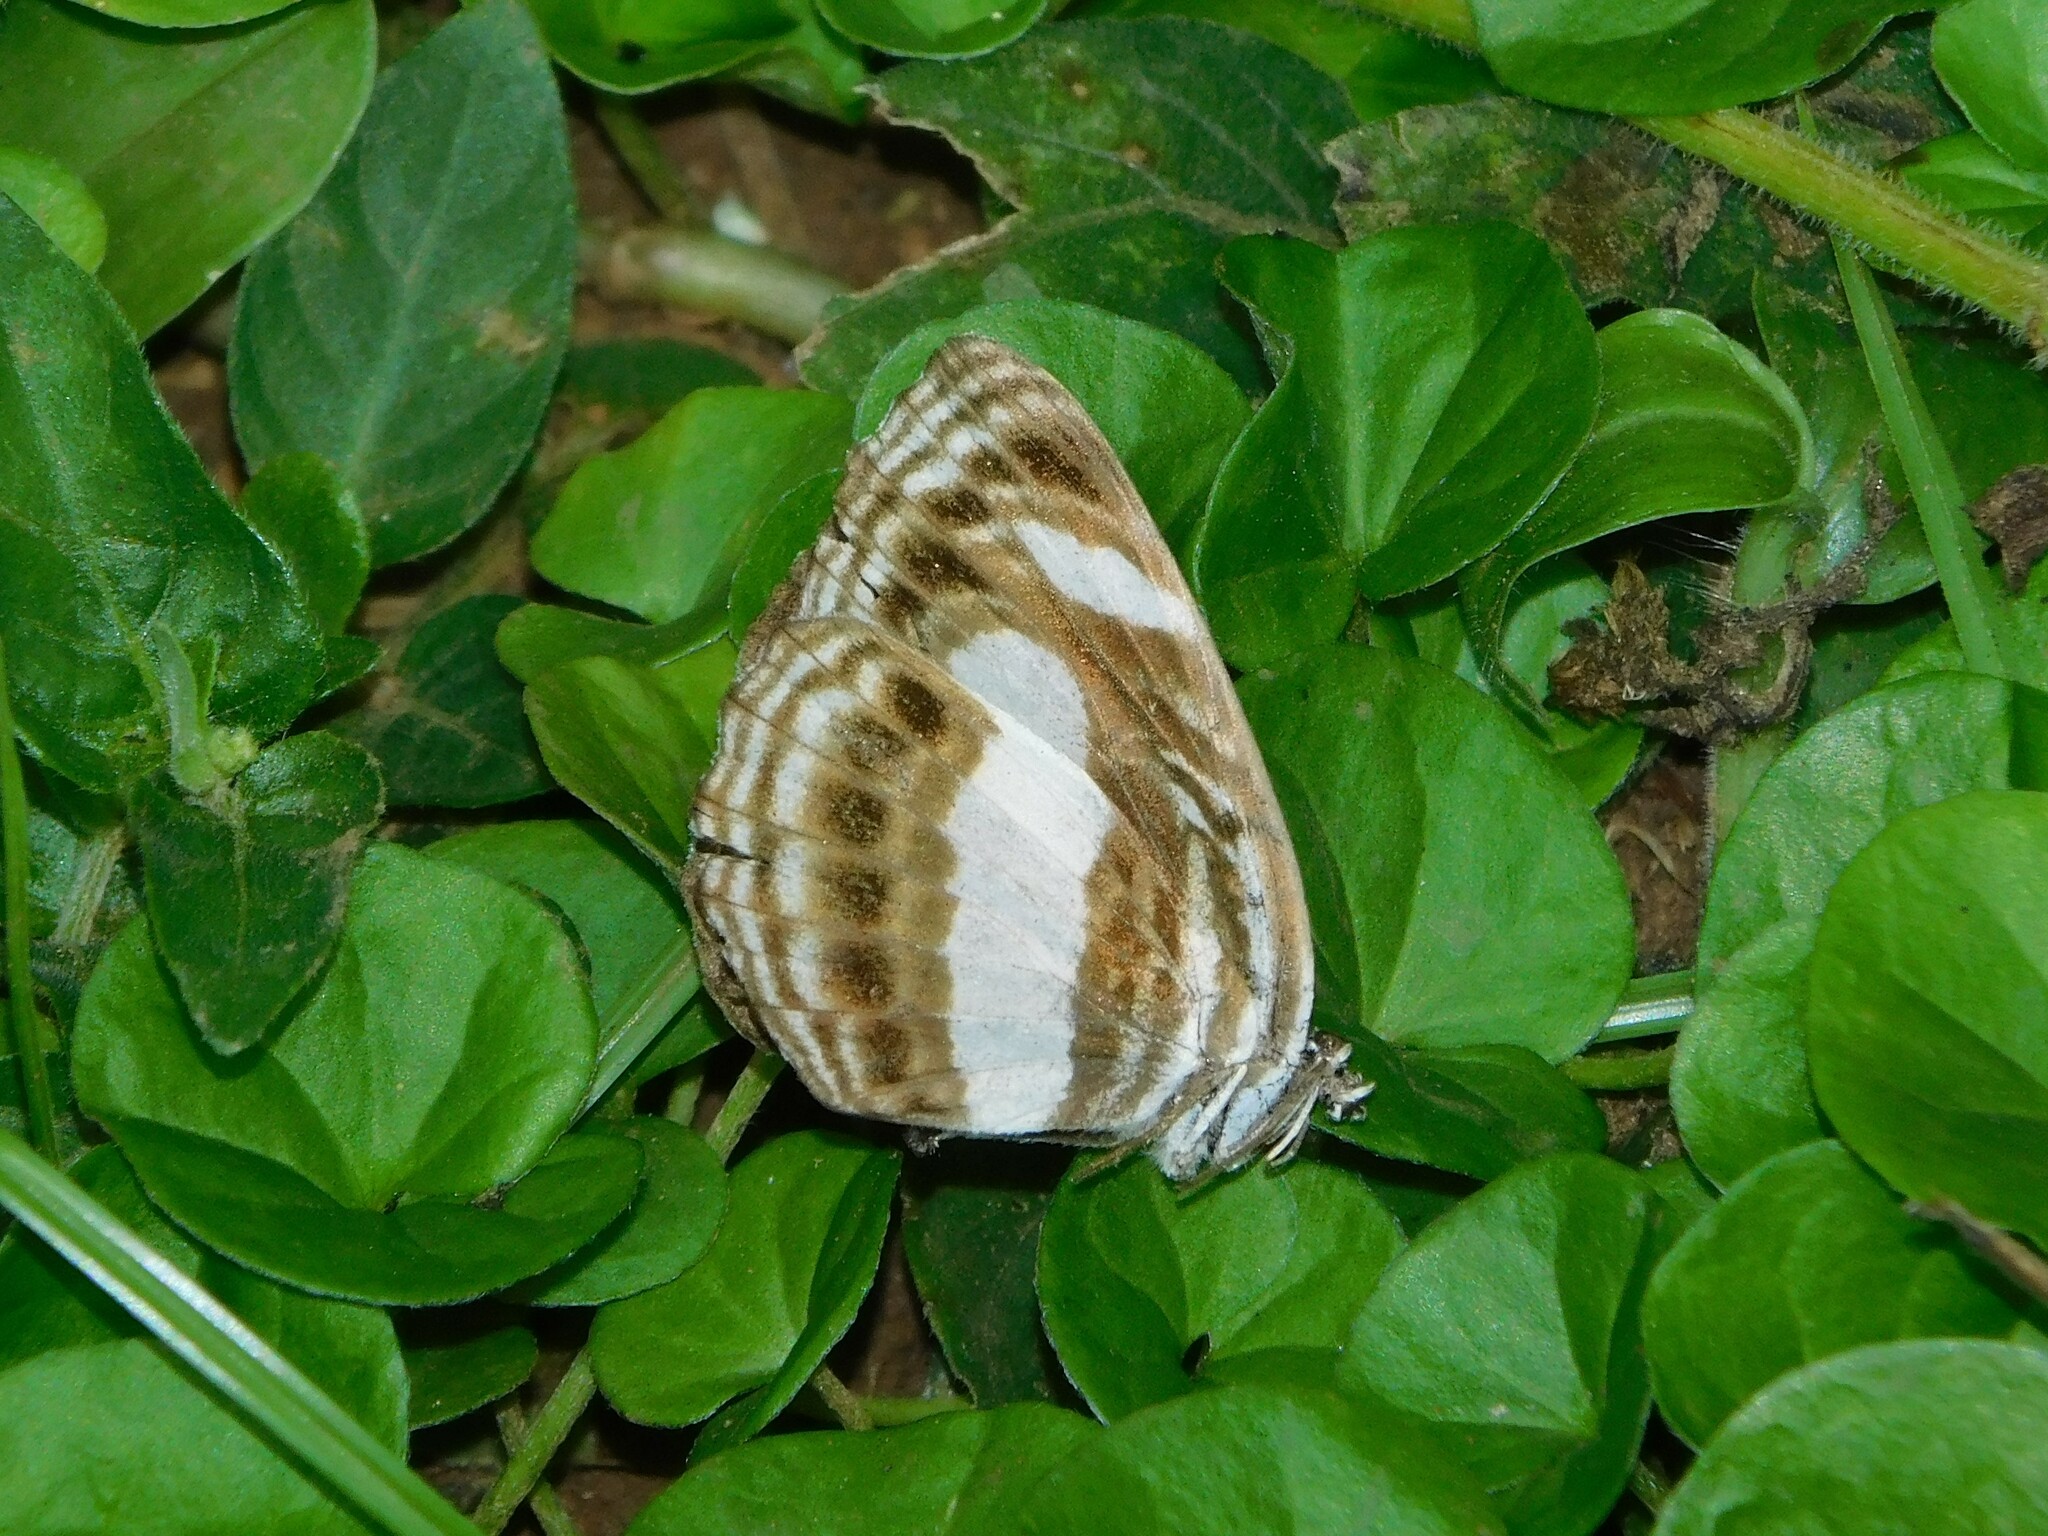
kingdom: Animalia
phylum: Arthropoda
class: Insecta
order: Lepidoptera
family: Nymphalidae
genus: Neptis
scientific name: Neptis nemetes
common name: Nemetes sailer
